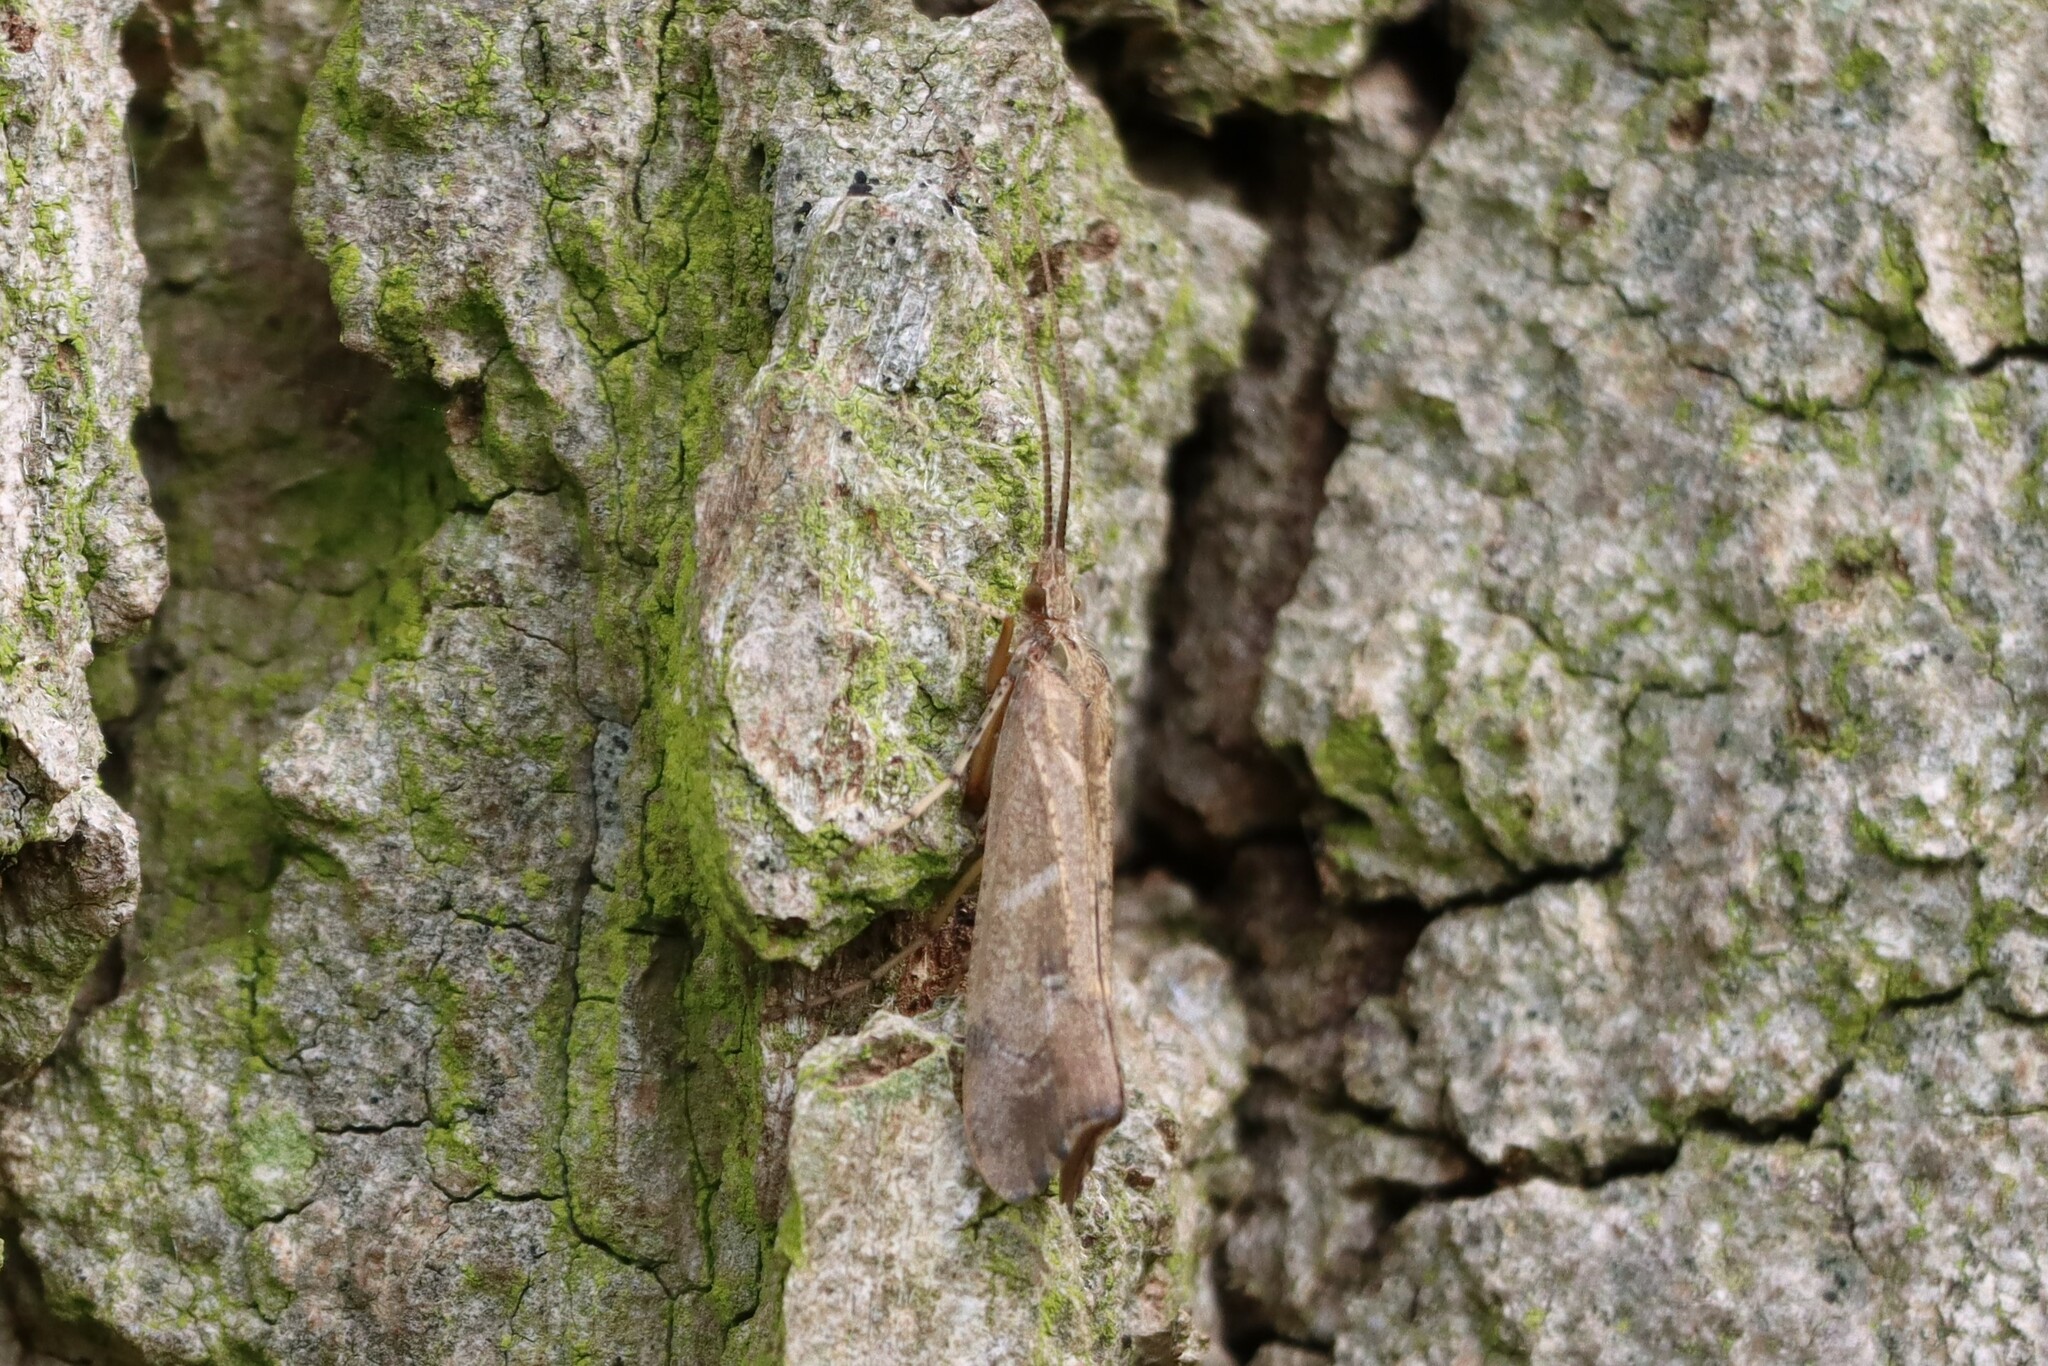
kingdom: Animalia
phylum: Arthropoda
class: Insecta
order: Trichoptera
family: Limnephilidae
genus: Glyphotaelius
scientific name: Glyphotaelius pellucidus
